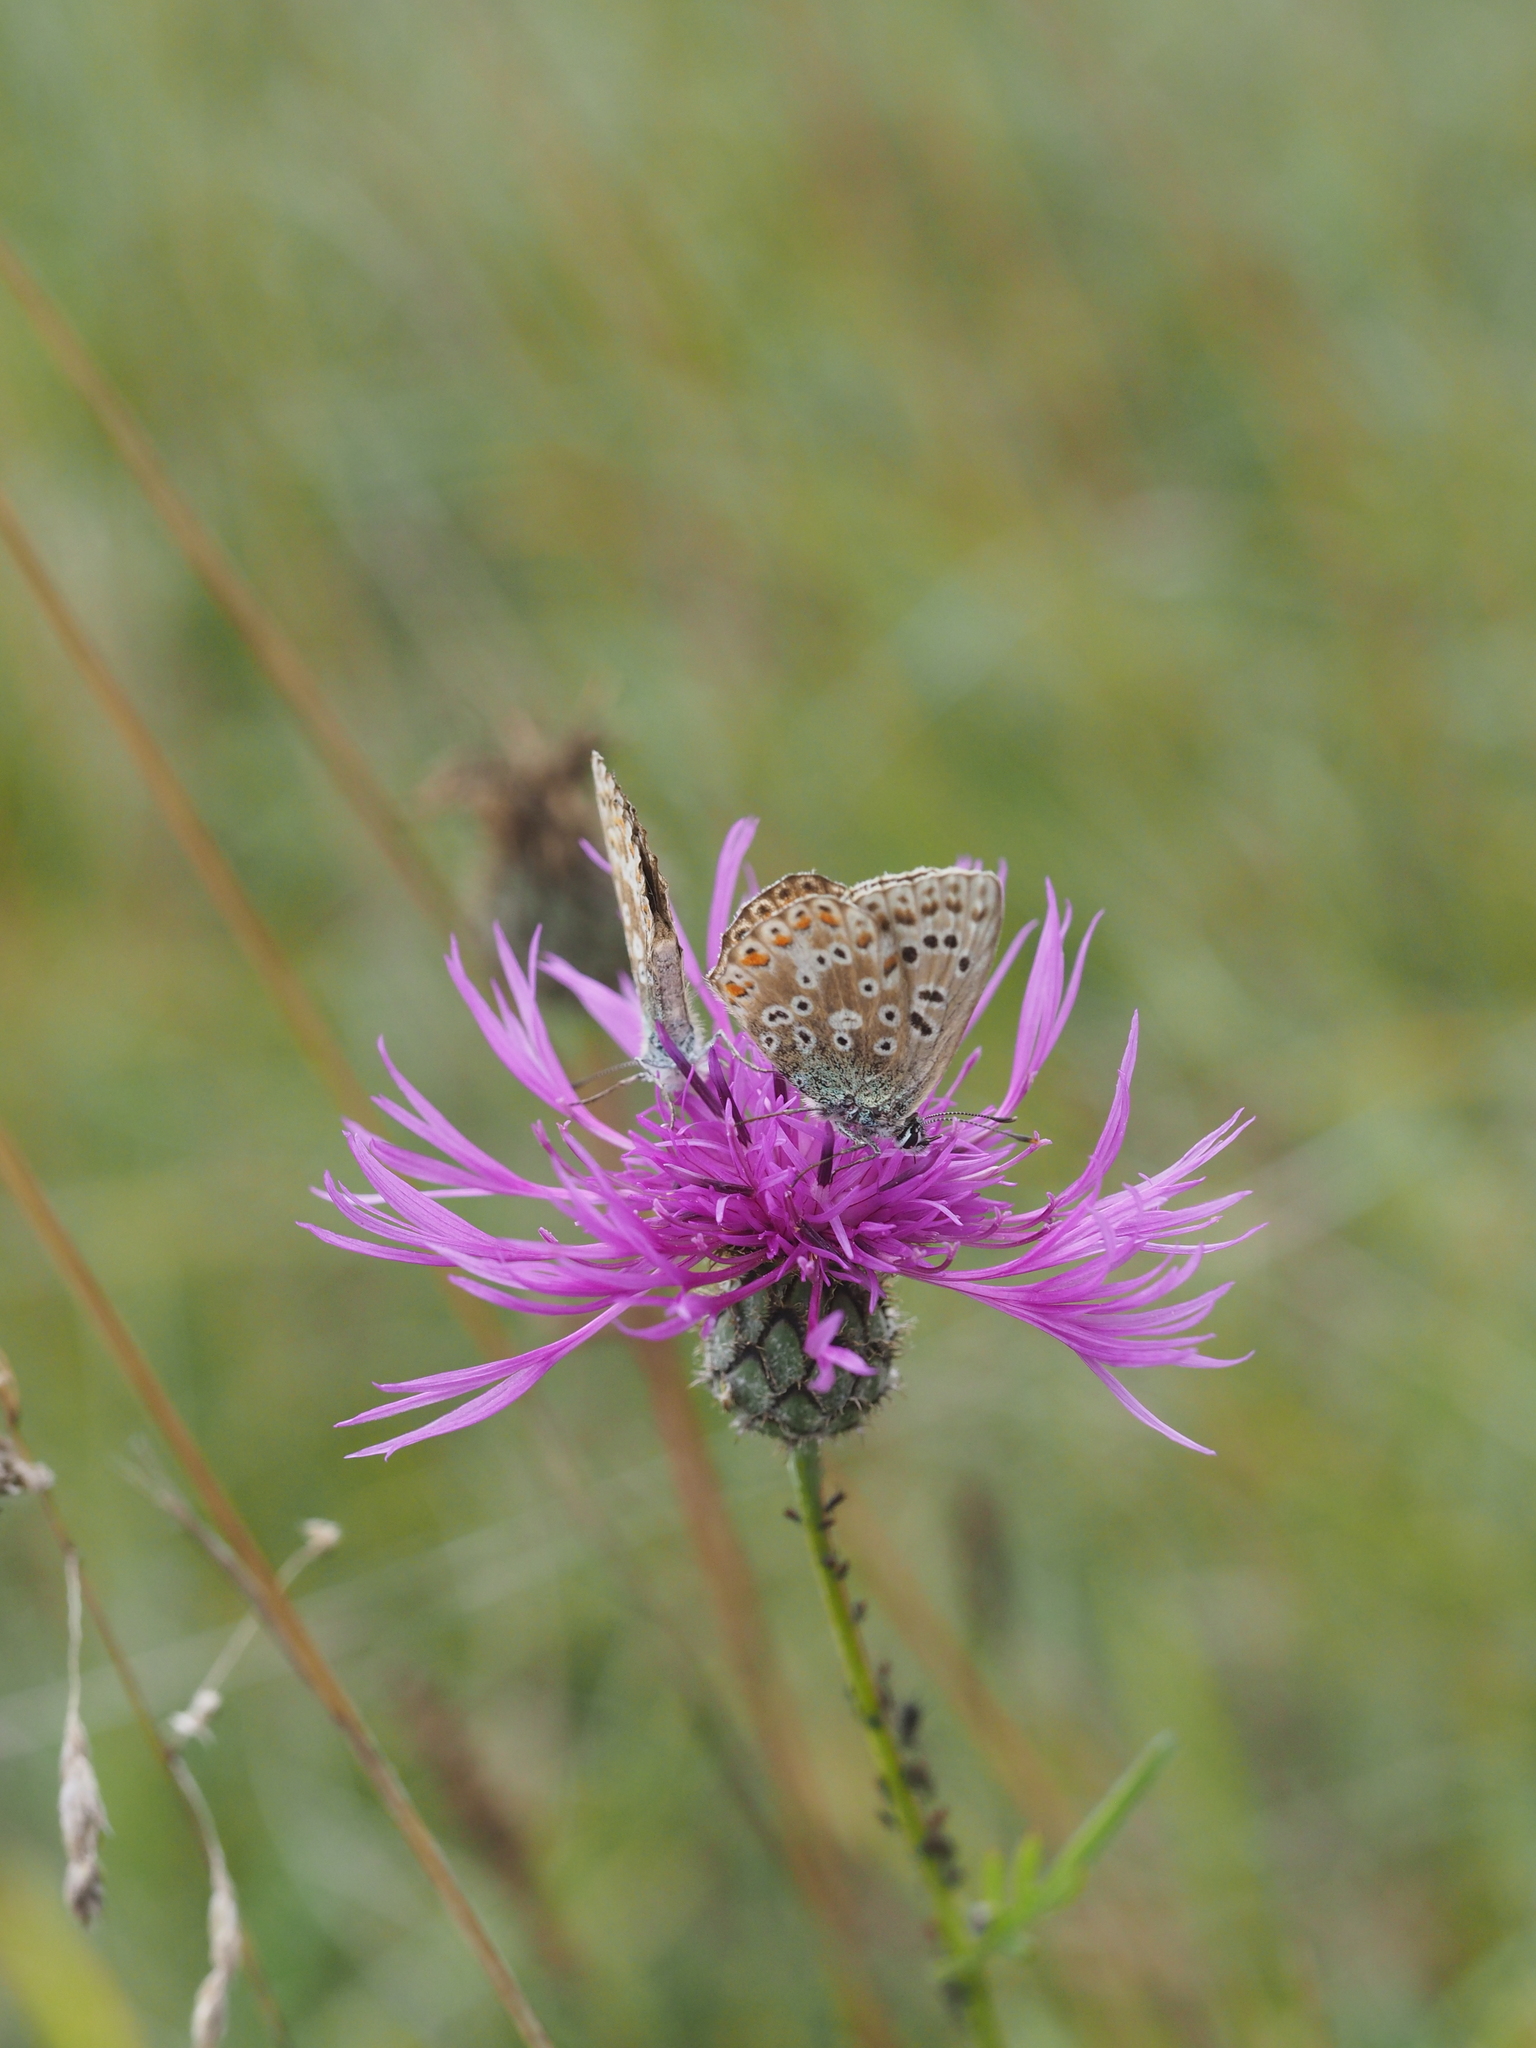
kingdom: Animalia
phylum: Arthropoda
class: Insecta
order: Lepidoptera
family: Lycaenidae
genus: Lysandra
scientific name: Lysandra coridon
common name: Chalkhill blue
